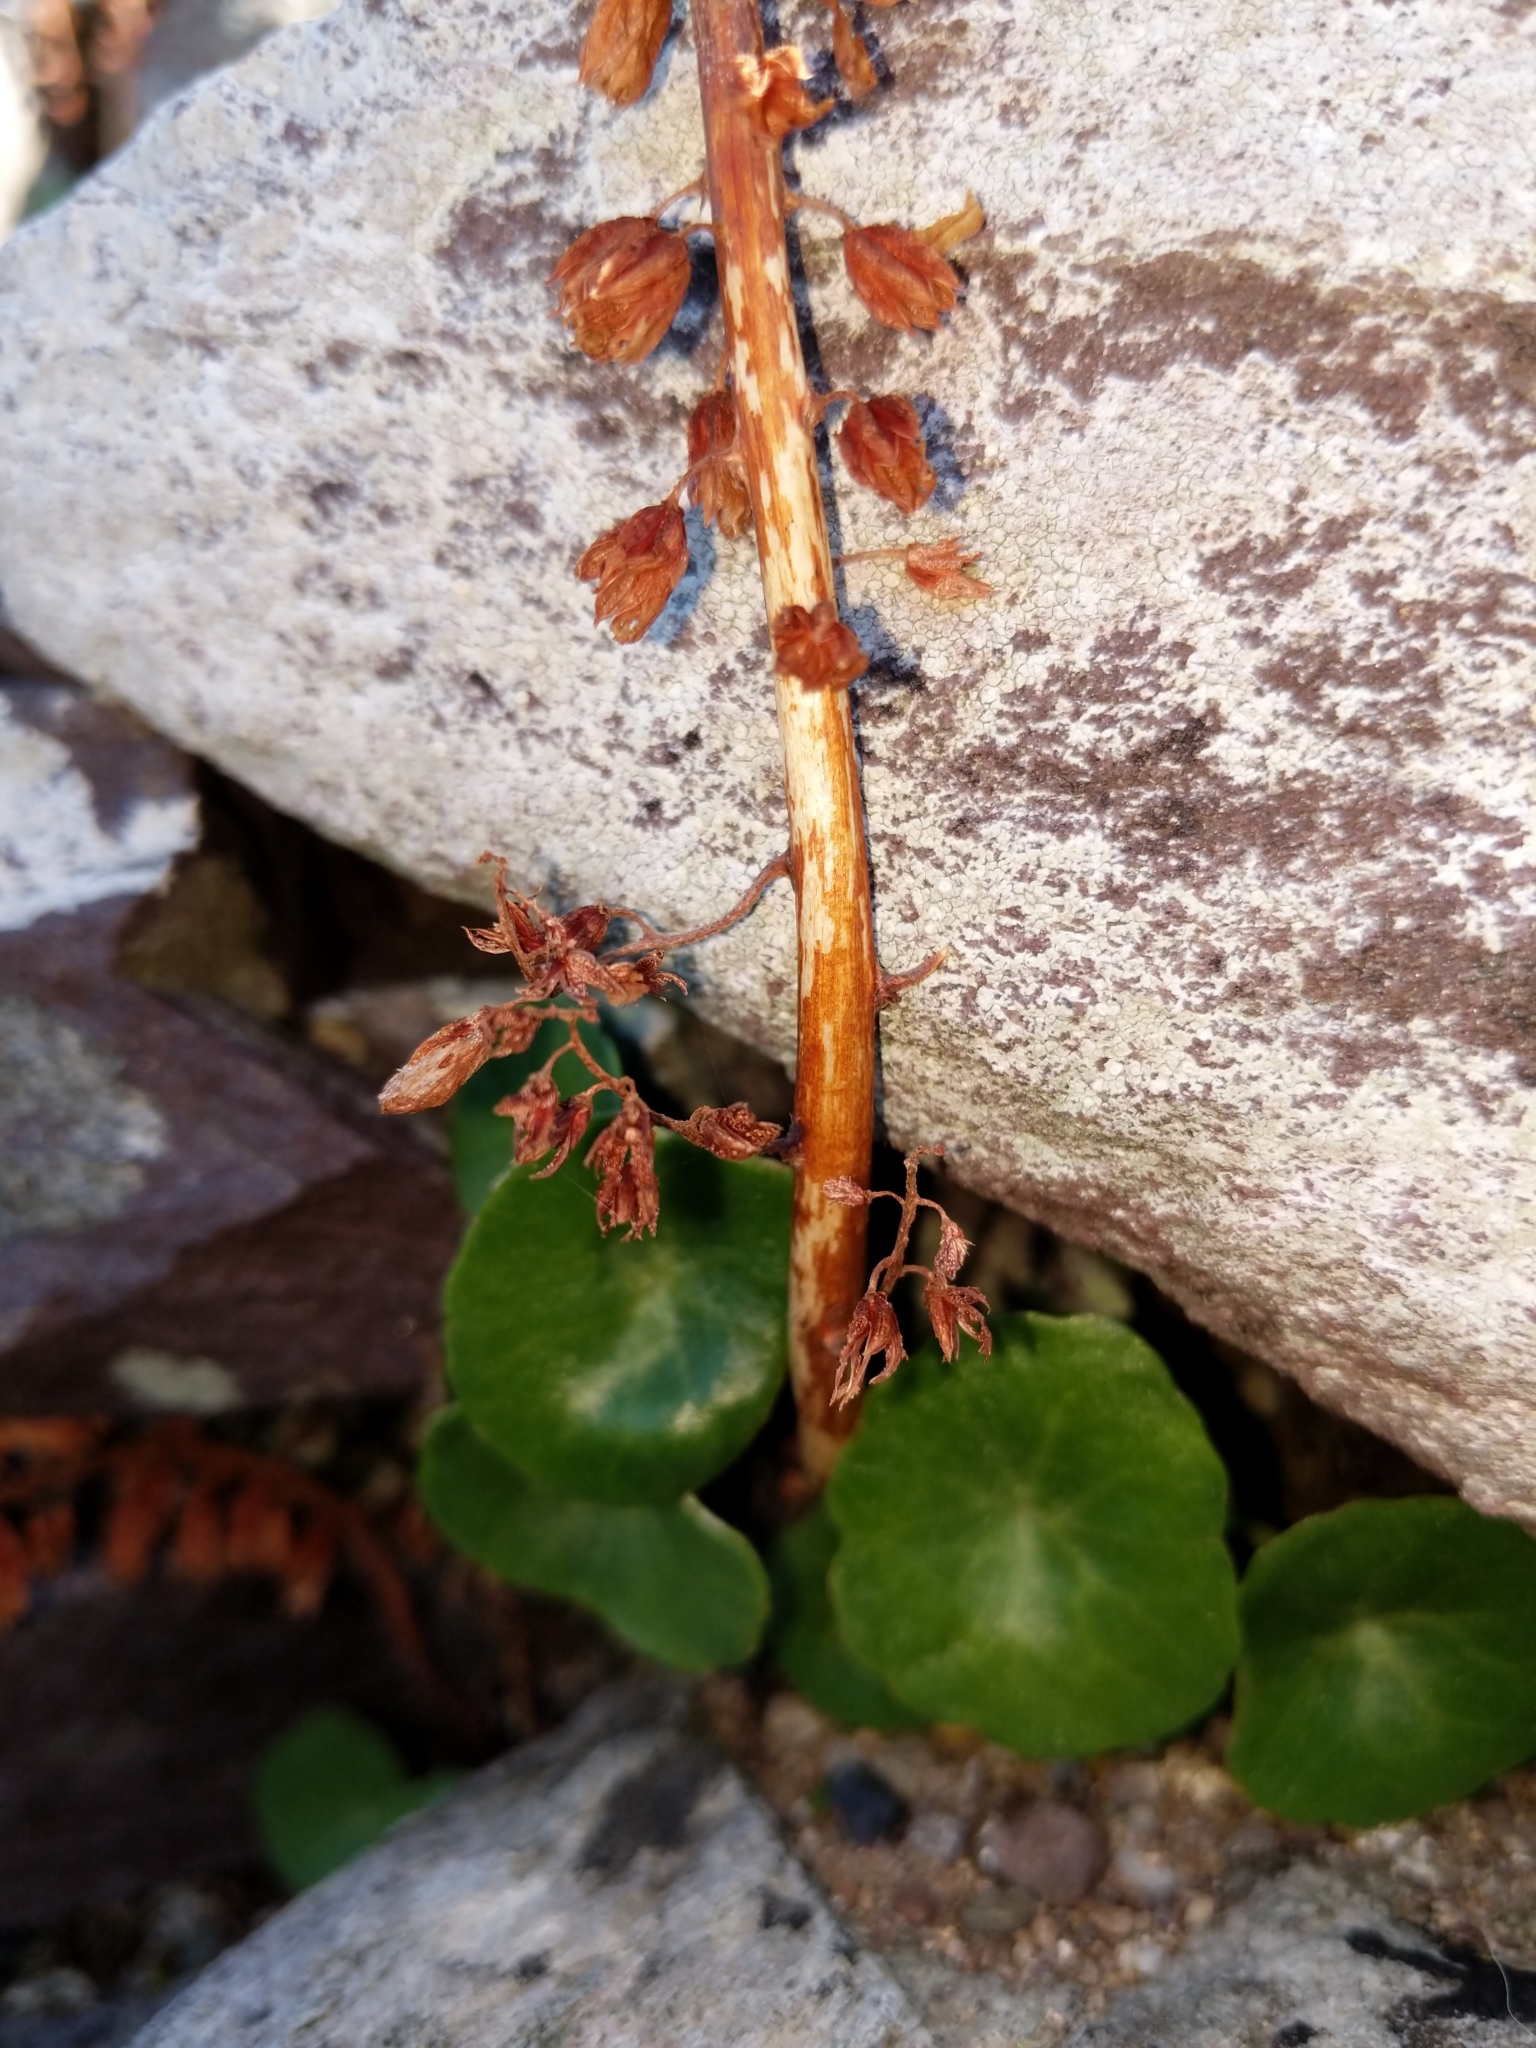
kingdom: Plantae
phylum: Tracheophyta
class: Magnoliopsida
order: Saxifragales
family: Crassulaceae
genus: Umbilicus
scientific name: Umbilicus rupestris
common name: Navelwort
